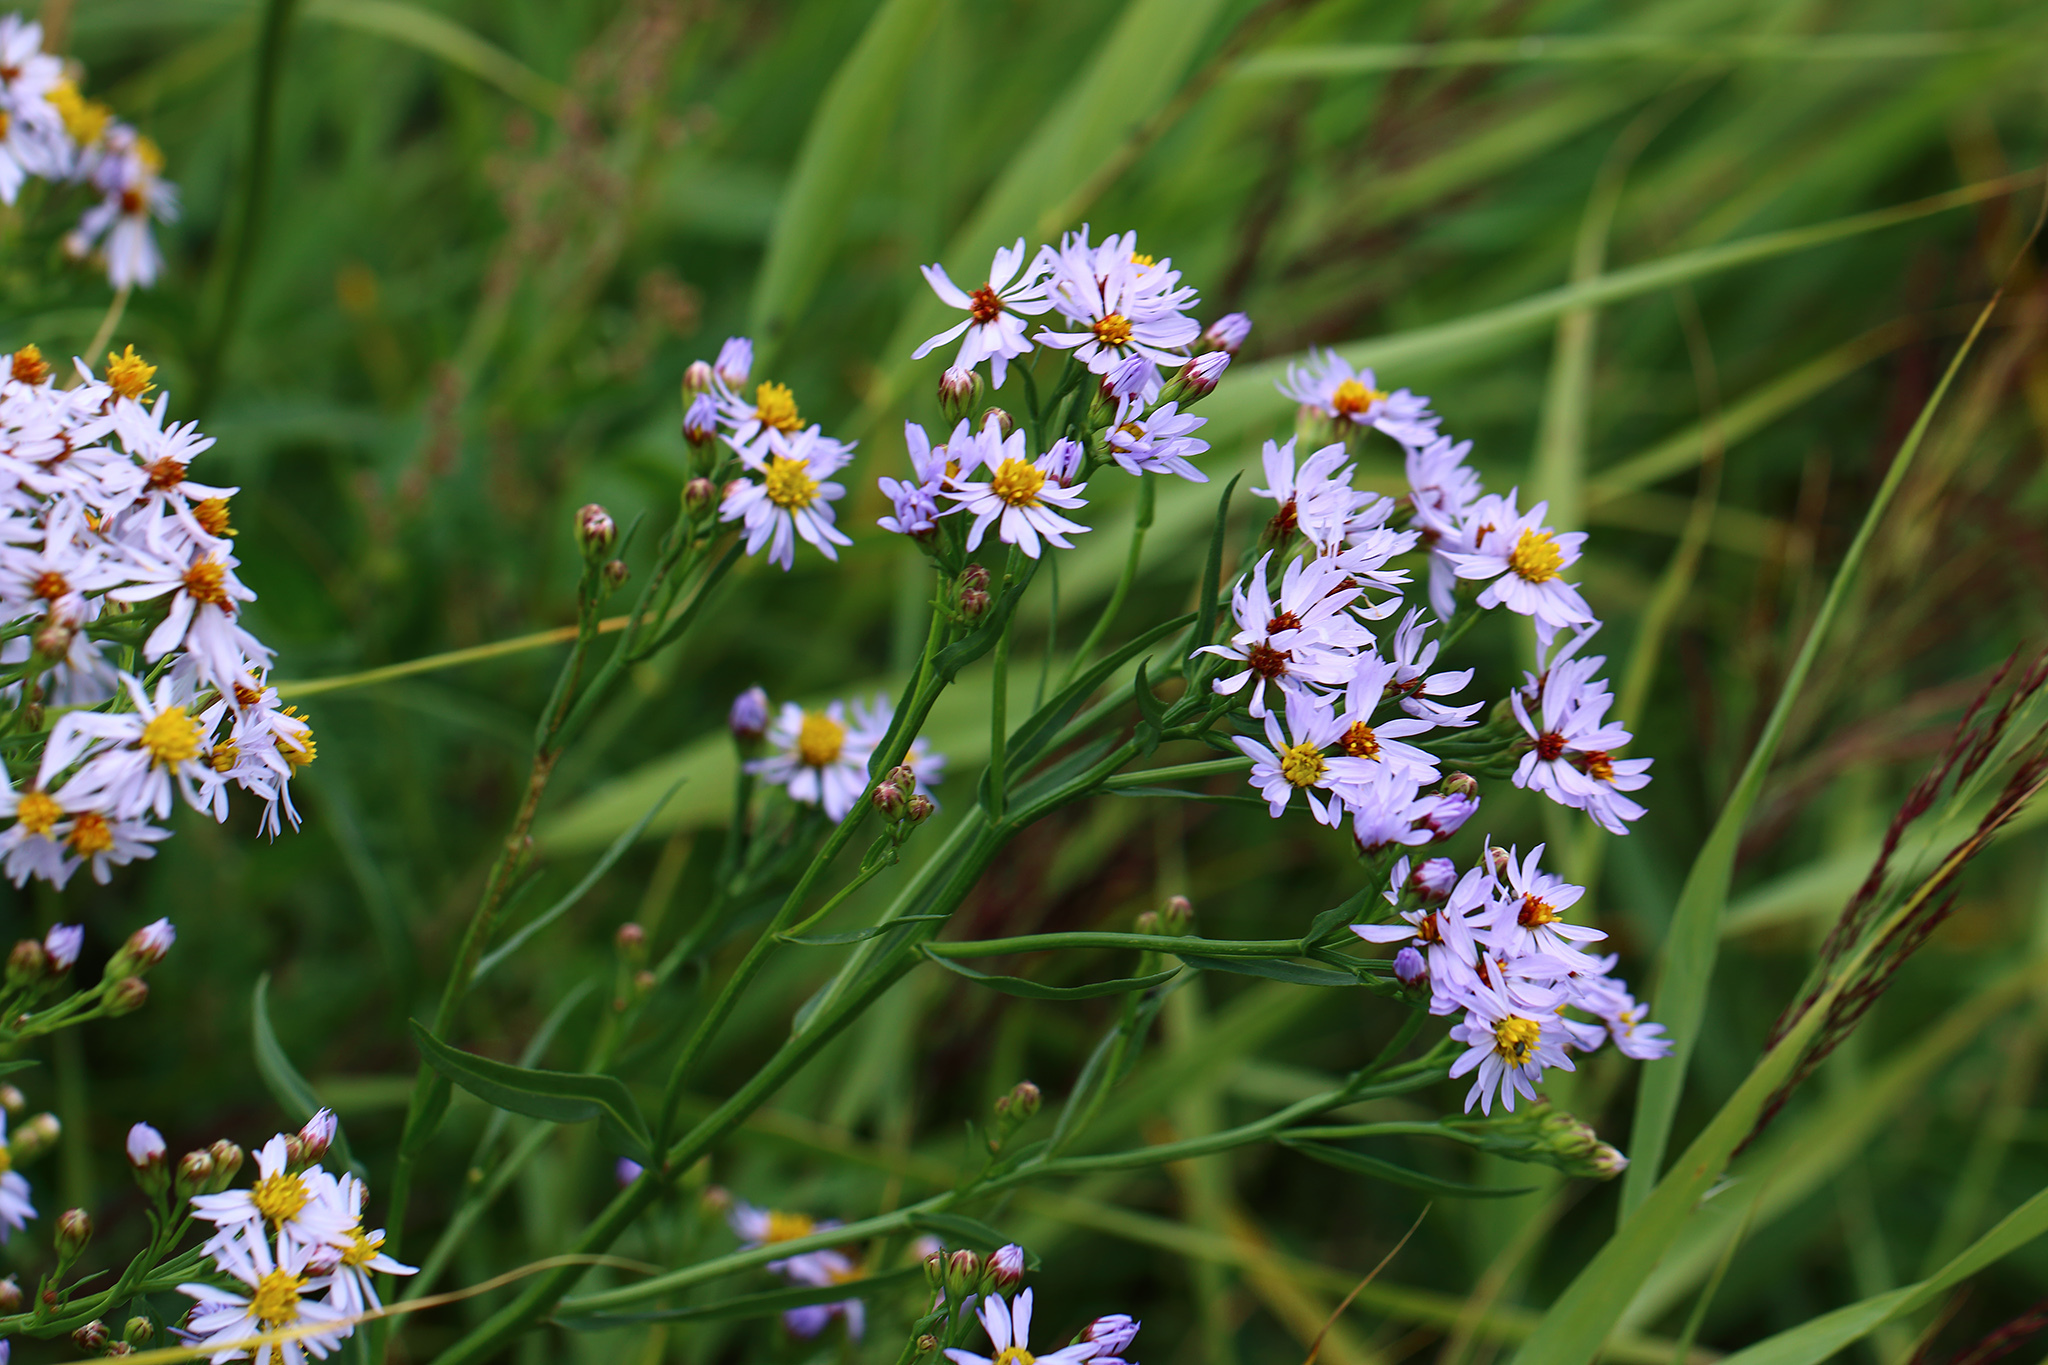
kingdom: Plantae
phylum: Tracheophyta
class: Magnoliopsida
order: Asterales
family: Asteraceae
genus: Tripolium
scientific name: Tripolium pannonicum
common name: Sea aster
